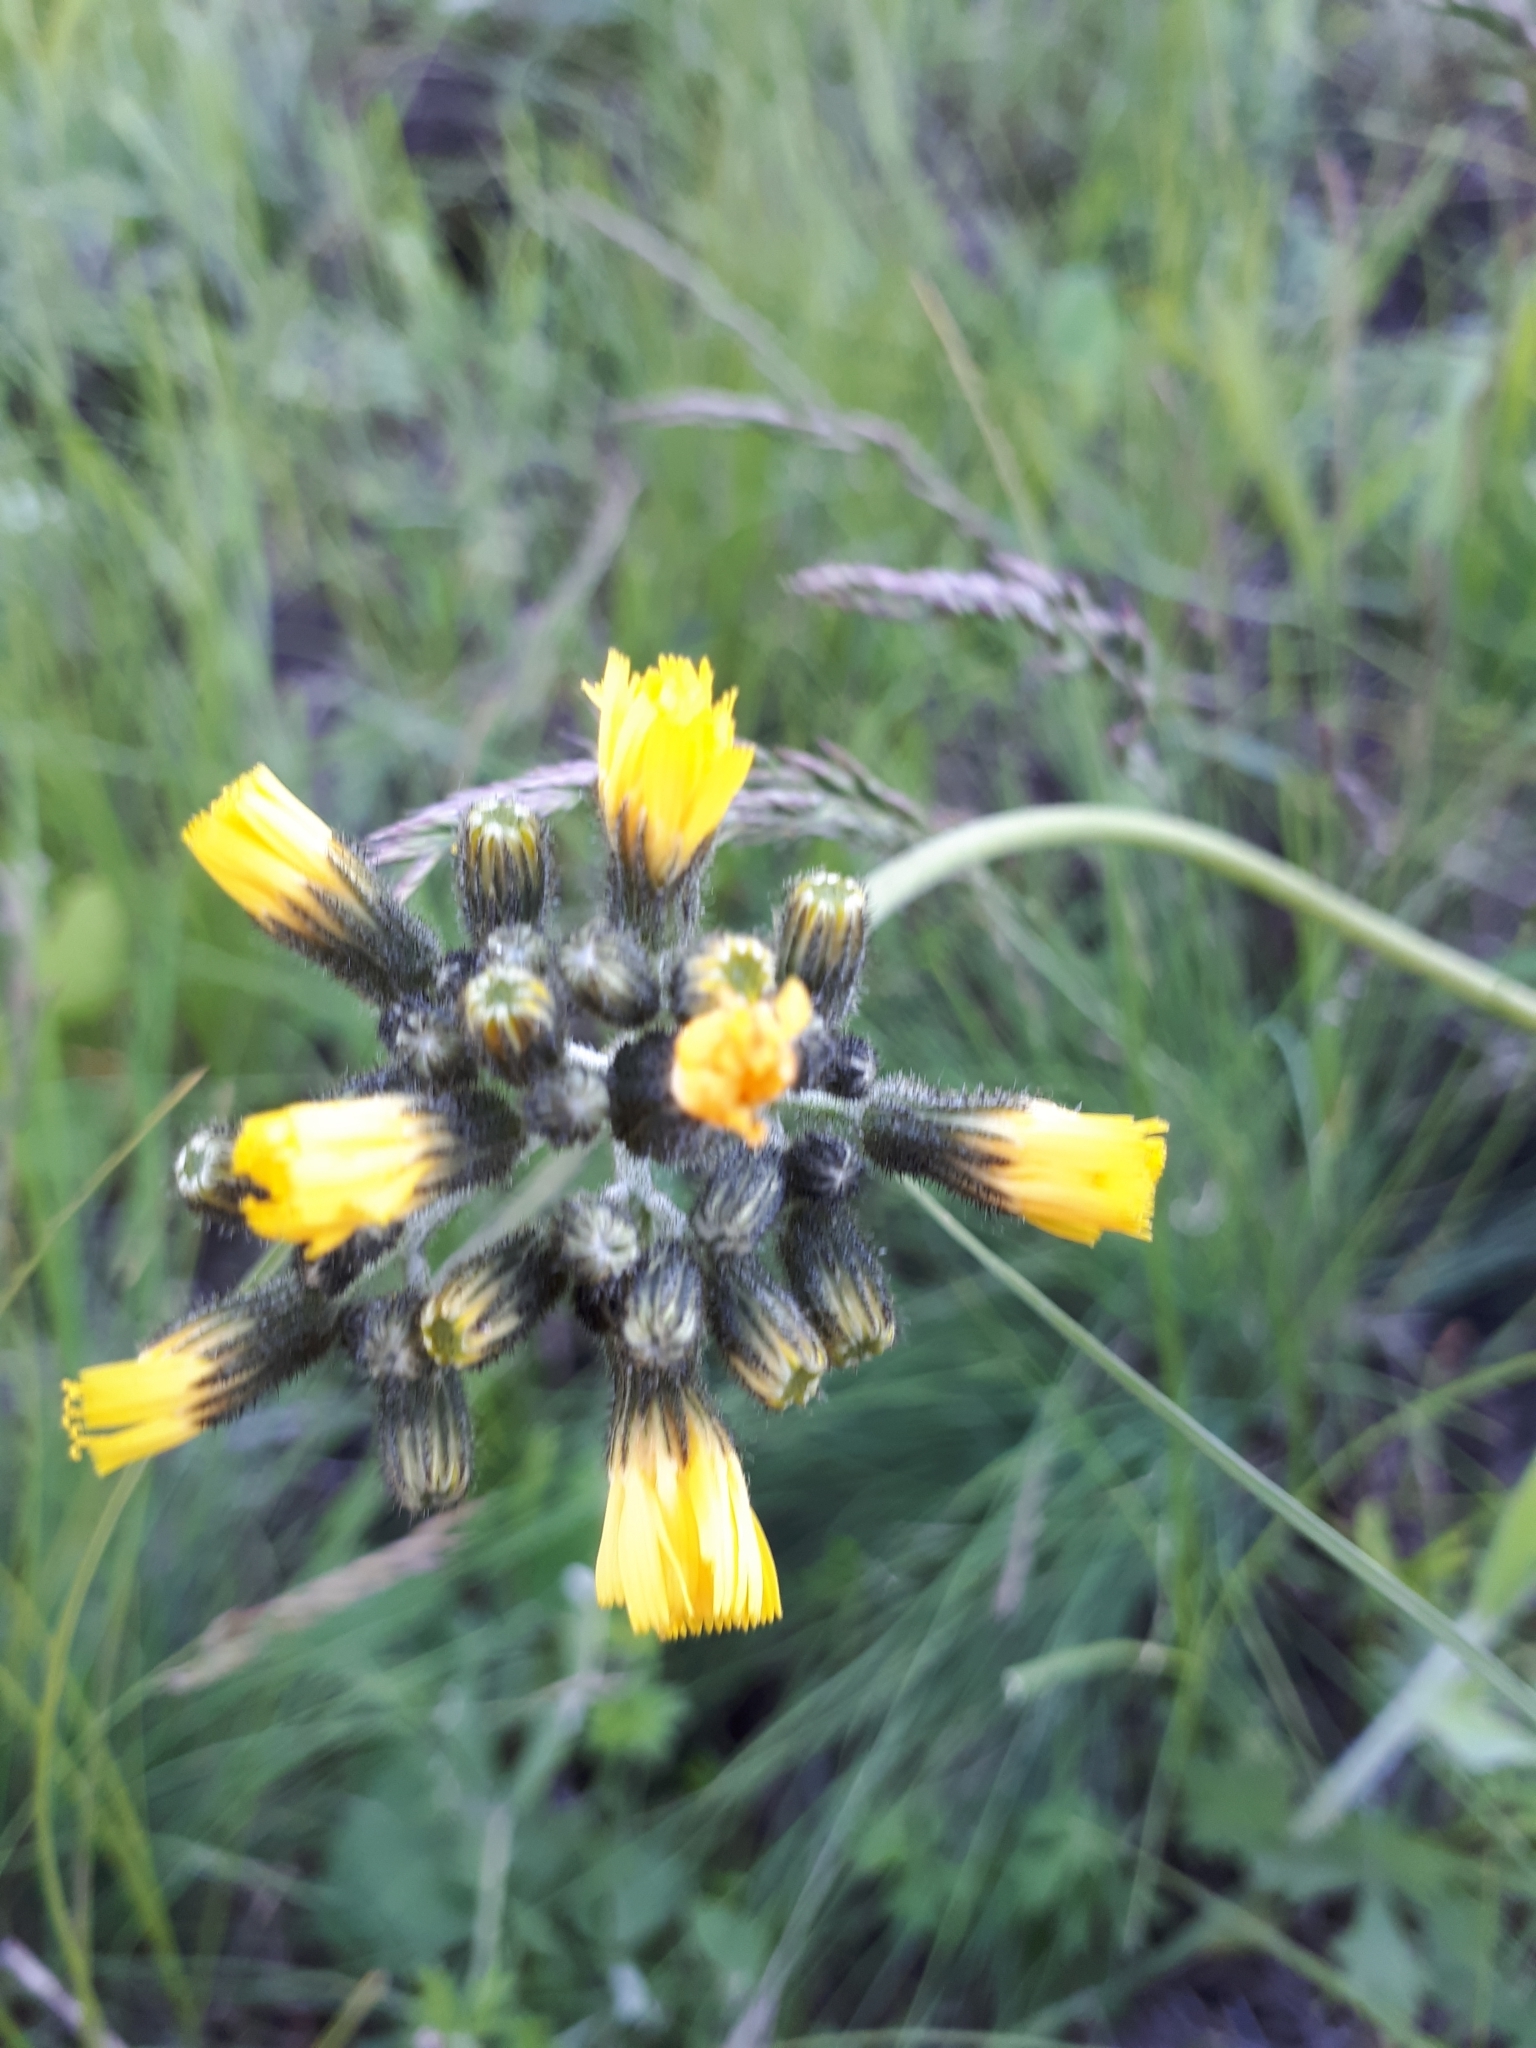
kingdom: Plantae
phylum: Tracheophyta
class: Magnoliopsida
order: Asterales
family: Asteraceae
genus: Pilosella
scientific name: Pilosella
